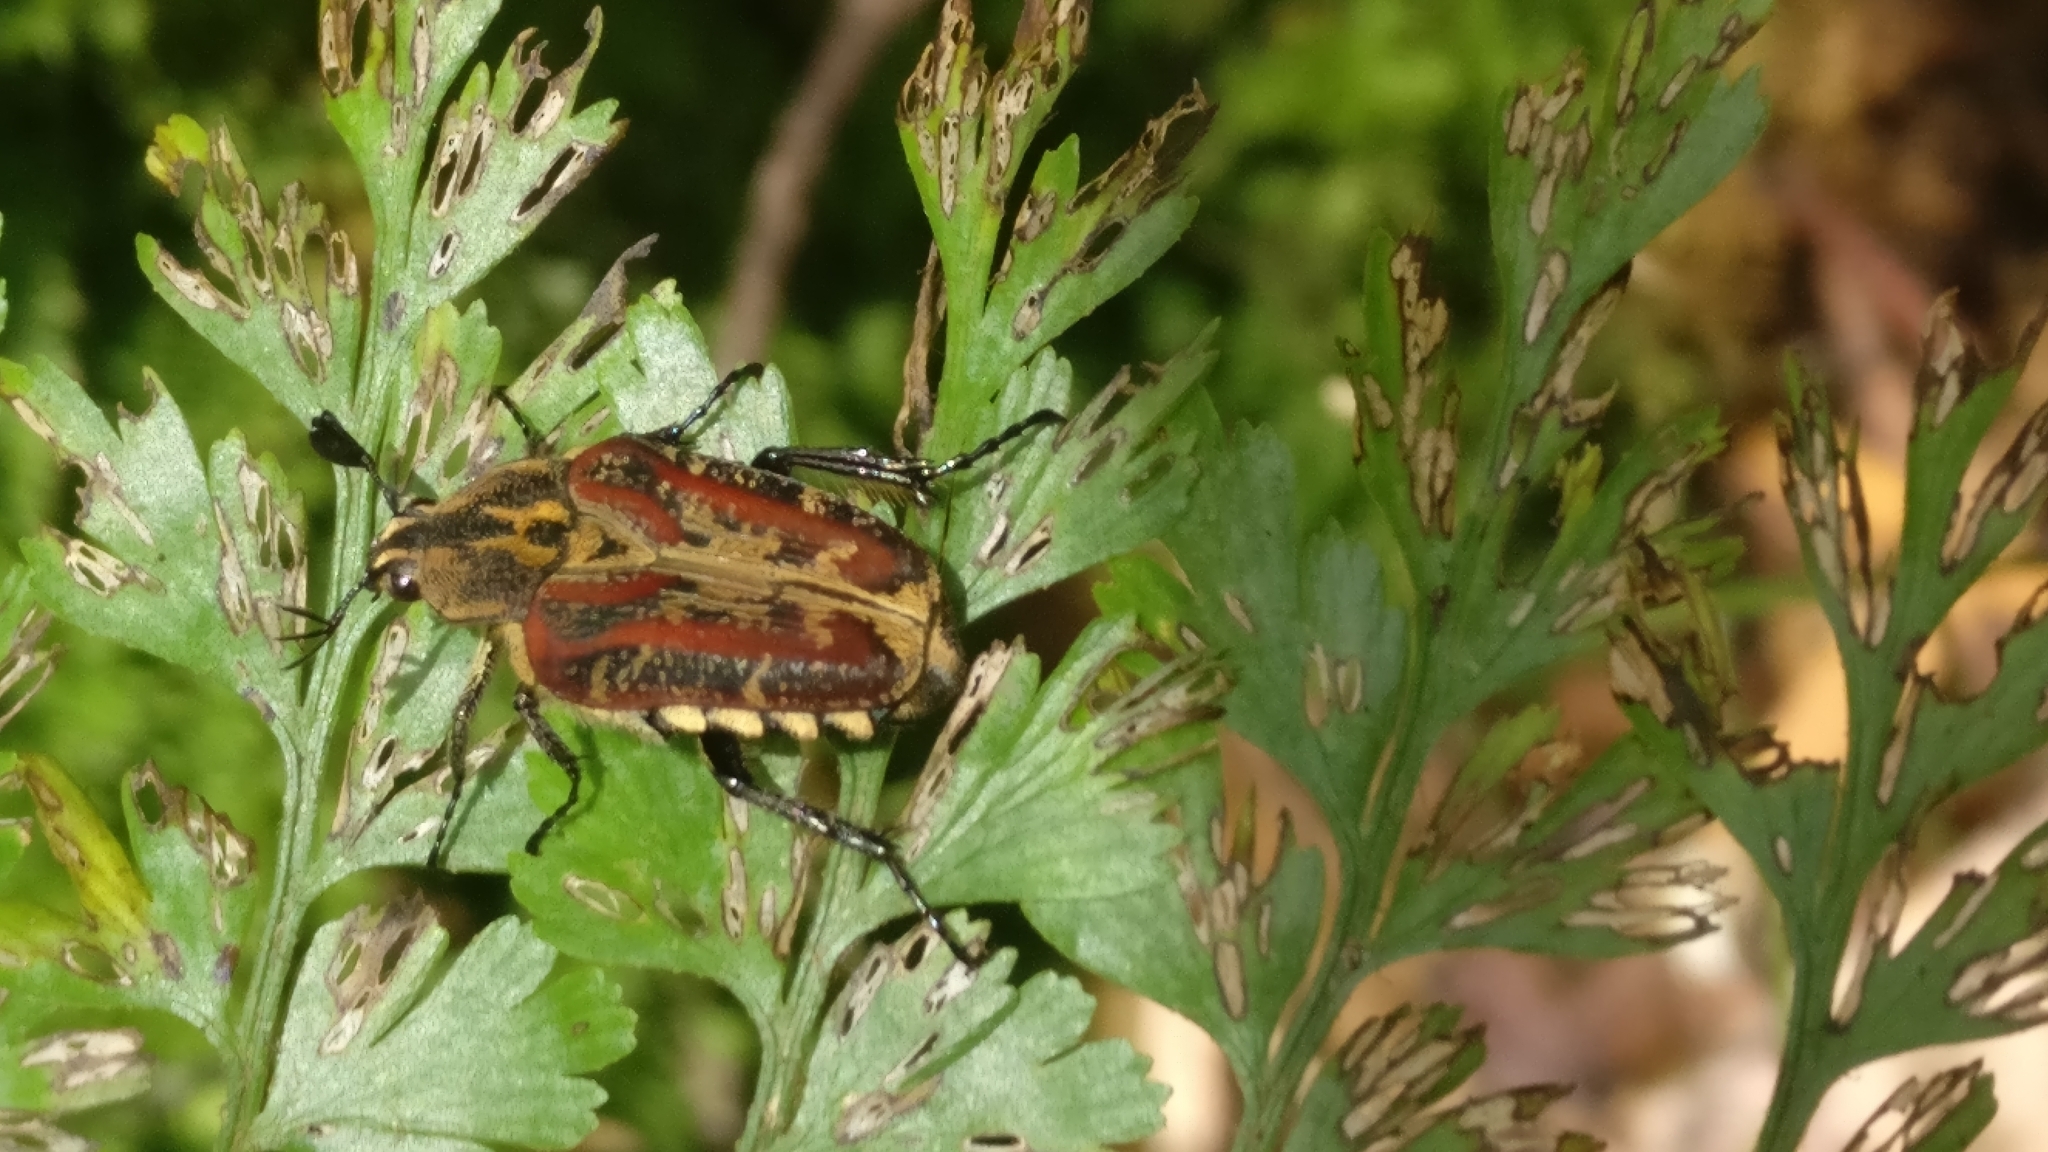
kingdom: Animalia
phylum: Arthropoda
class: Insecta
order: Coleoptera
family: Scarabaeidae
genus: Taeniodera
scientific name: Taeniodera bufo
